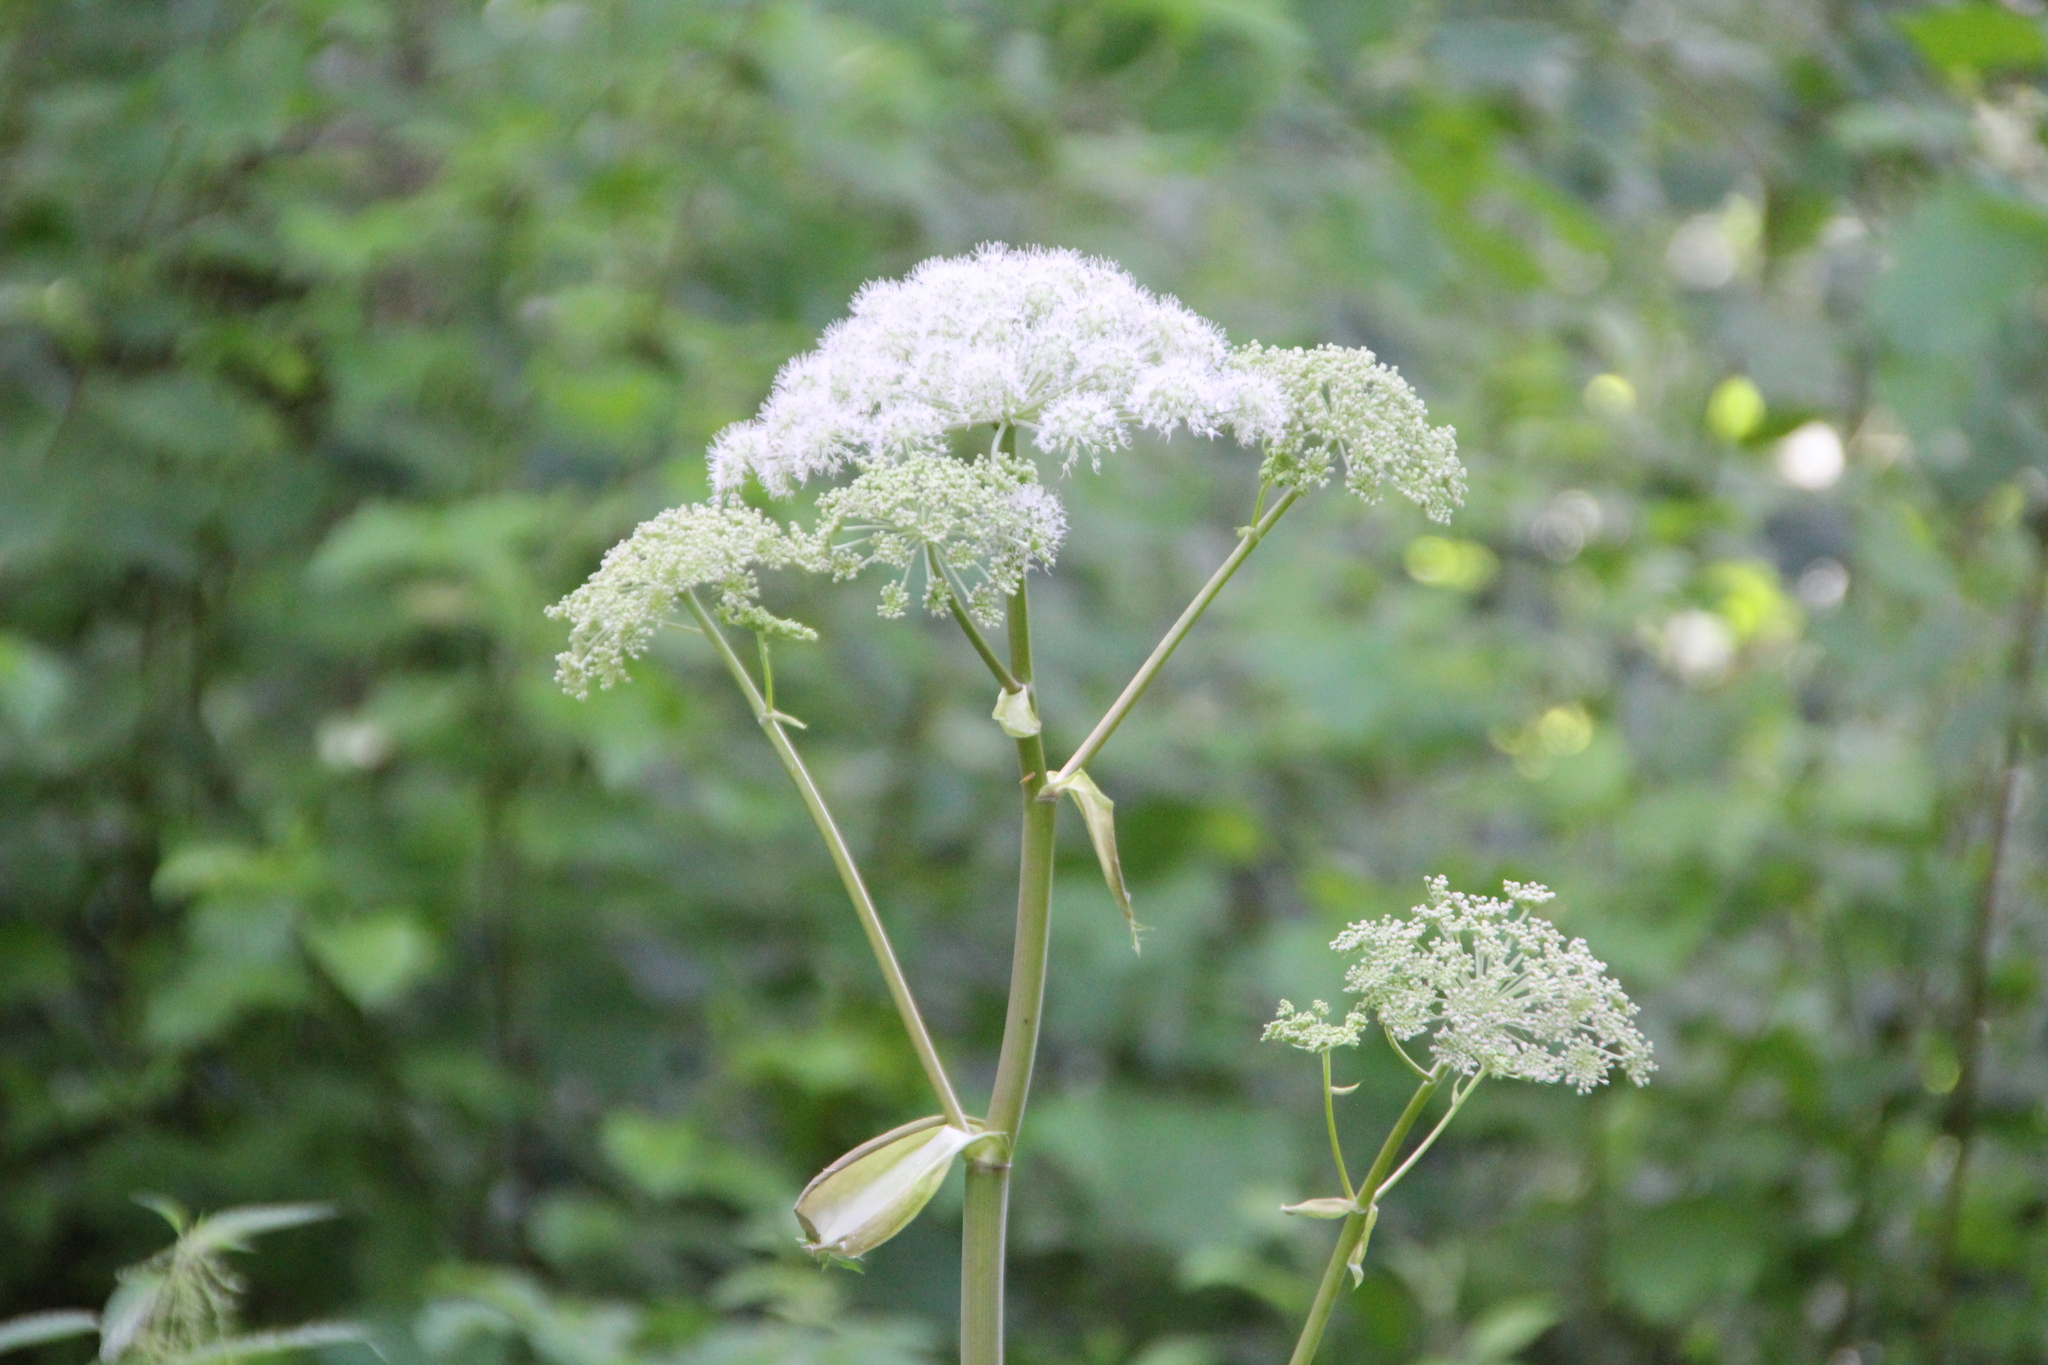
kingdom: Plantae
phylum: Tracheophyta
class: Magnoliopsida
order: Apiales
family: Apiaceae
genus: Angelica
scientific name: Angelica sylvestris
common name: Wild angelica
